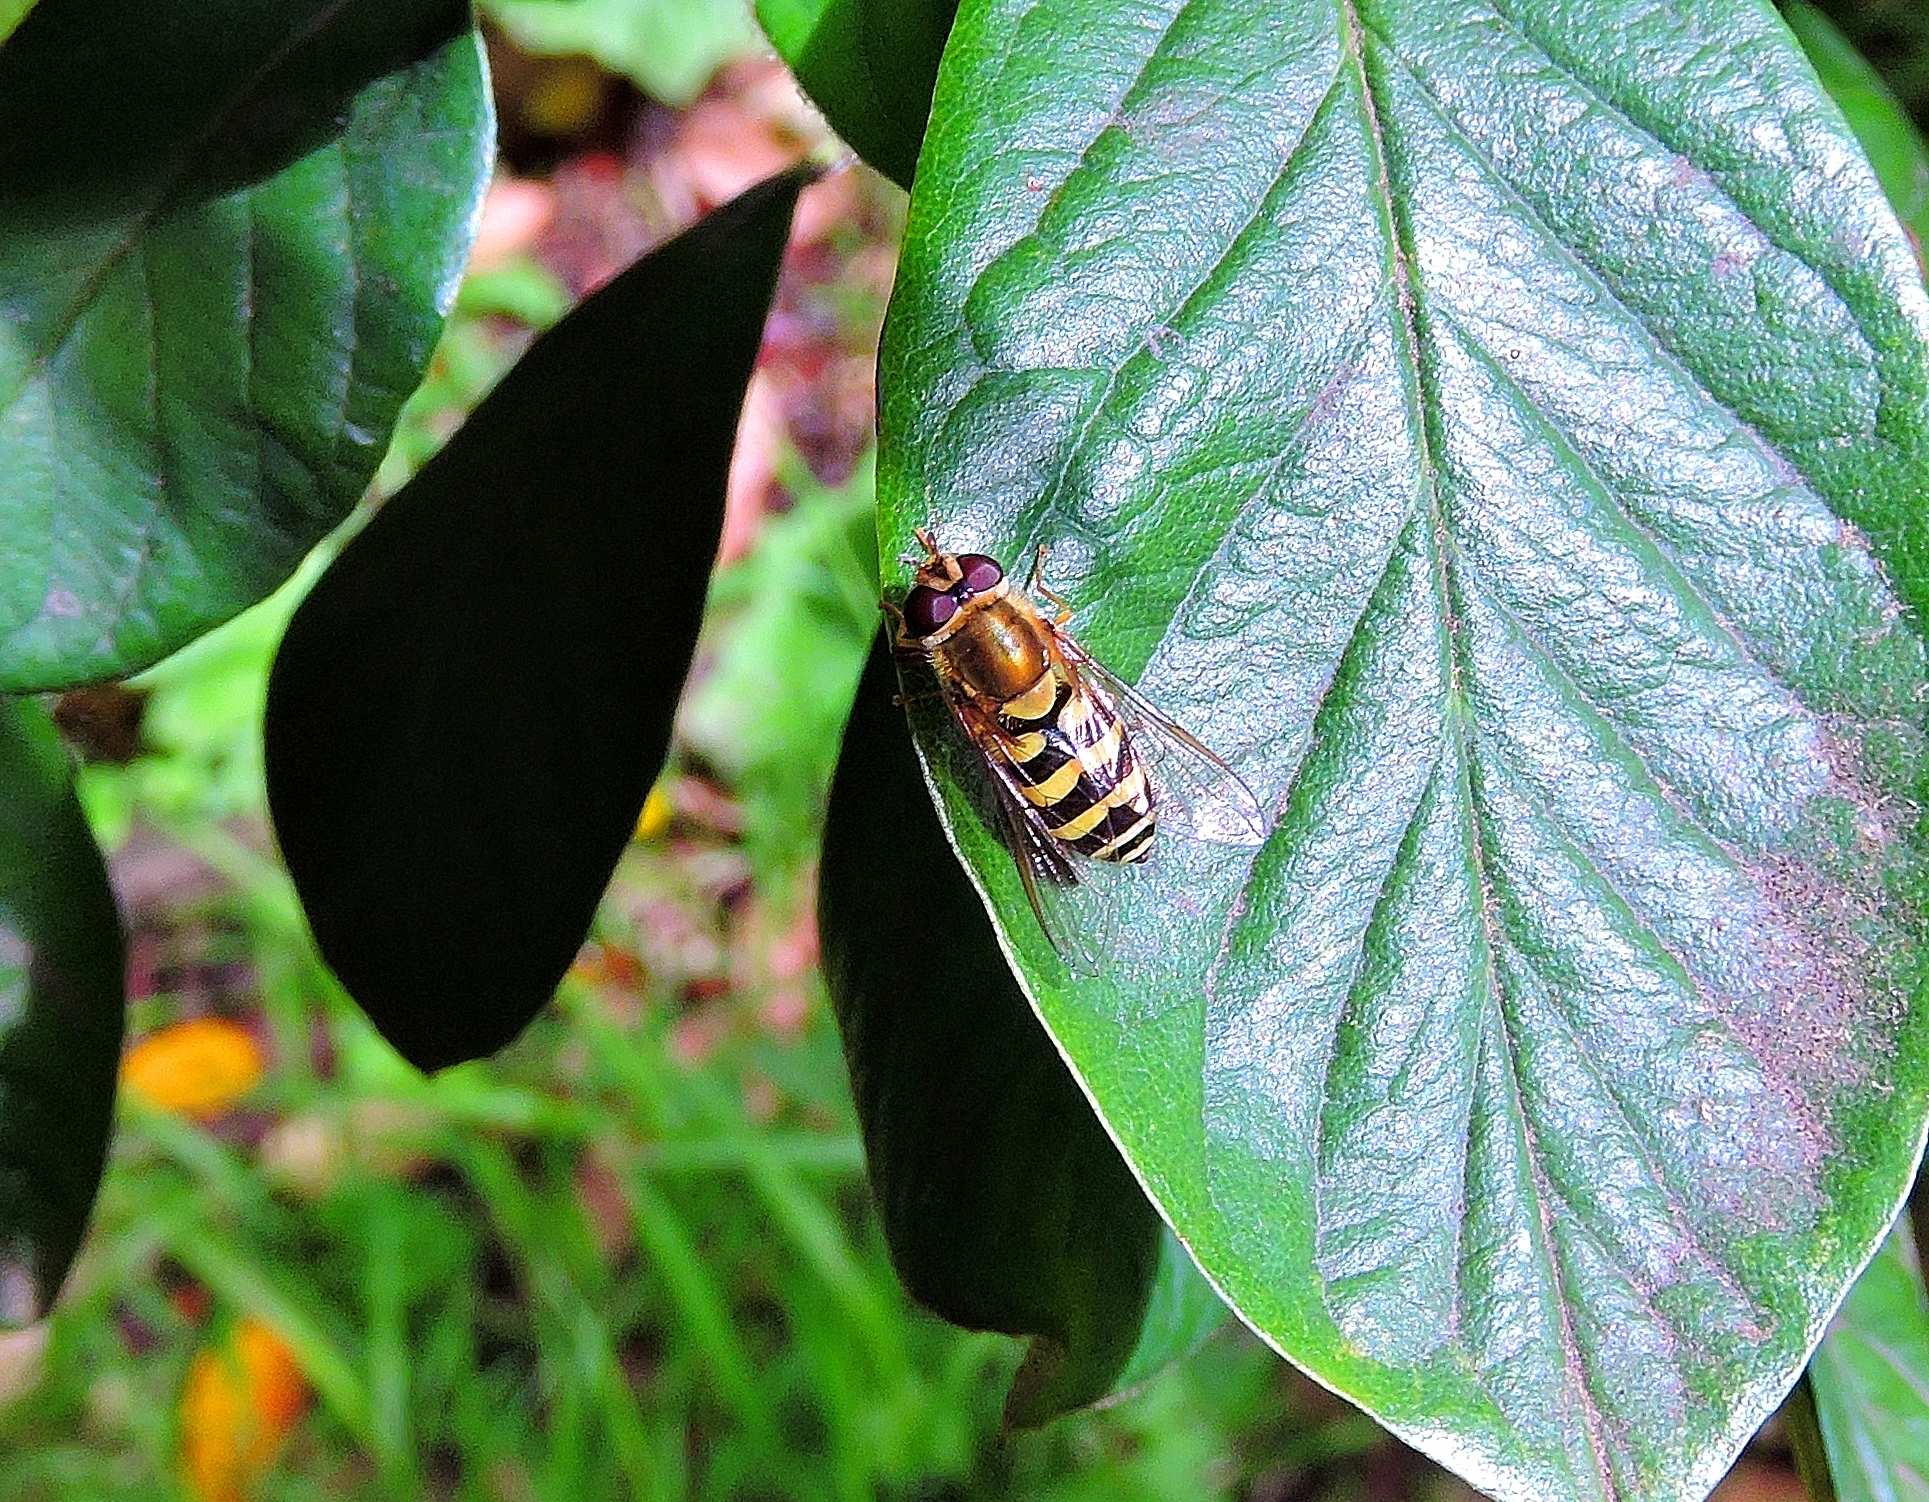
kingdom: Animalia
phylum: Arthropoda
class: Insecta
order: Diptera
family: Syrphidae
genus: Syrphus
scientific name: Syrphus
